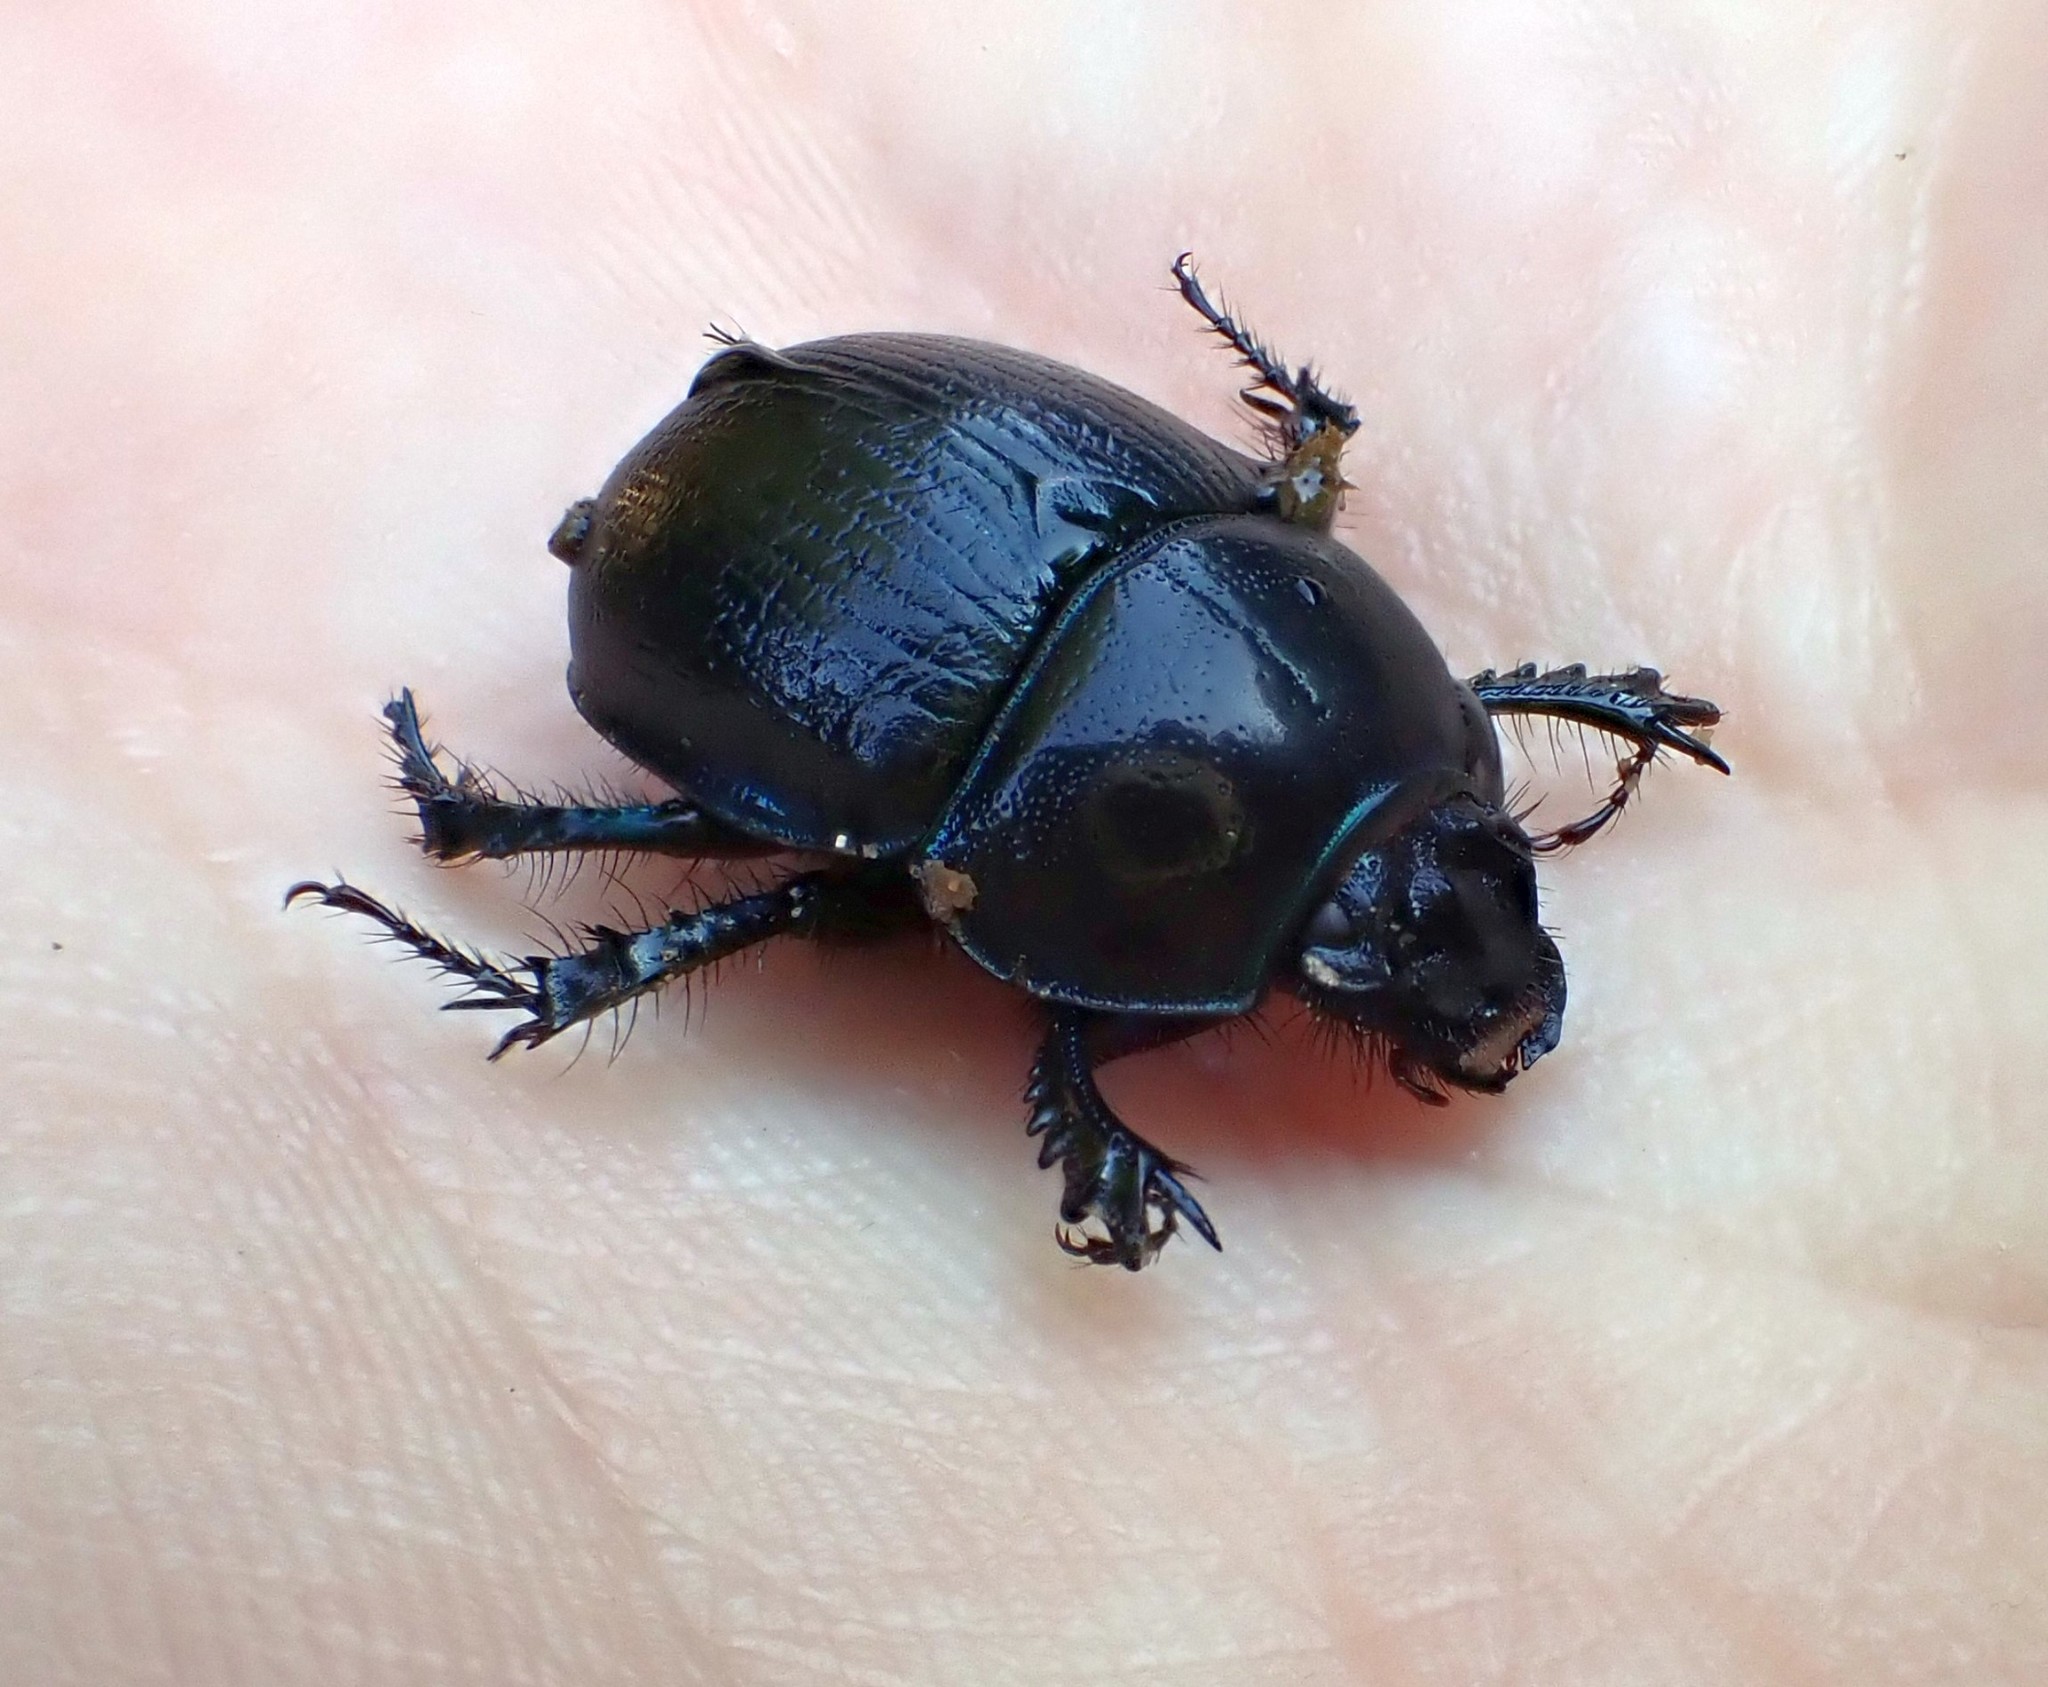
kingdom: Animalia
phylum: Arthropoda
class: Insecta
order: Coleoptera
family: Geotrupidae
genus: Anoplotrupes
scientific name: Anoplotrupes stercorosus
